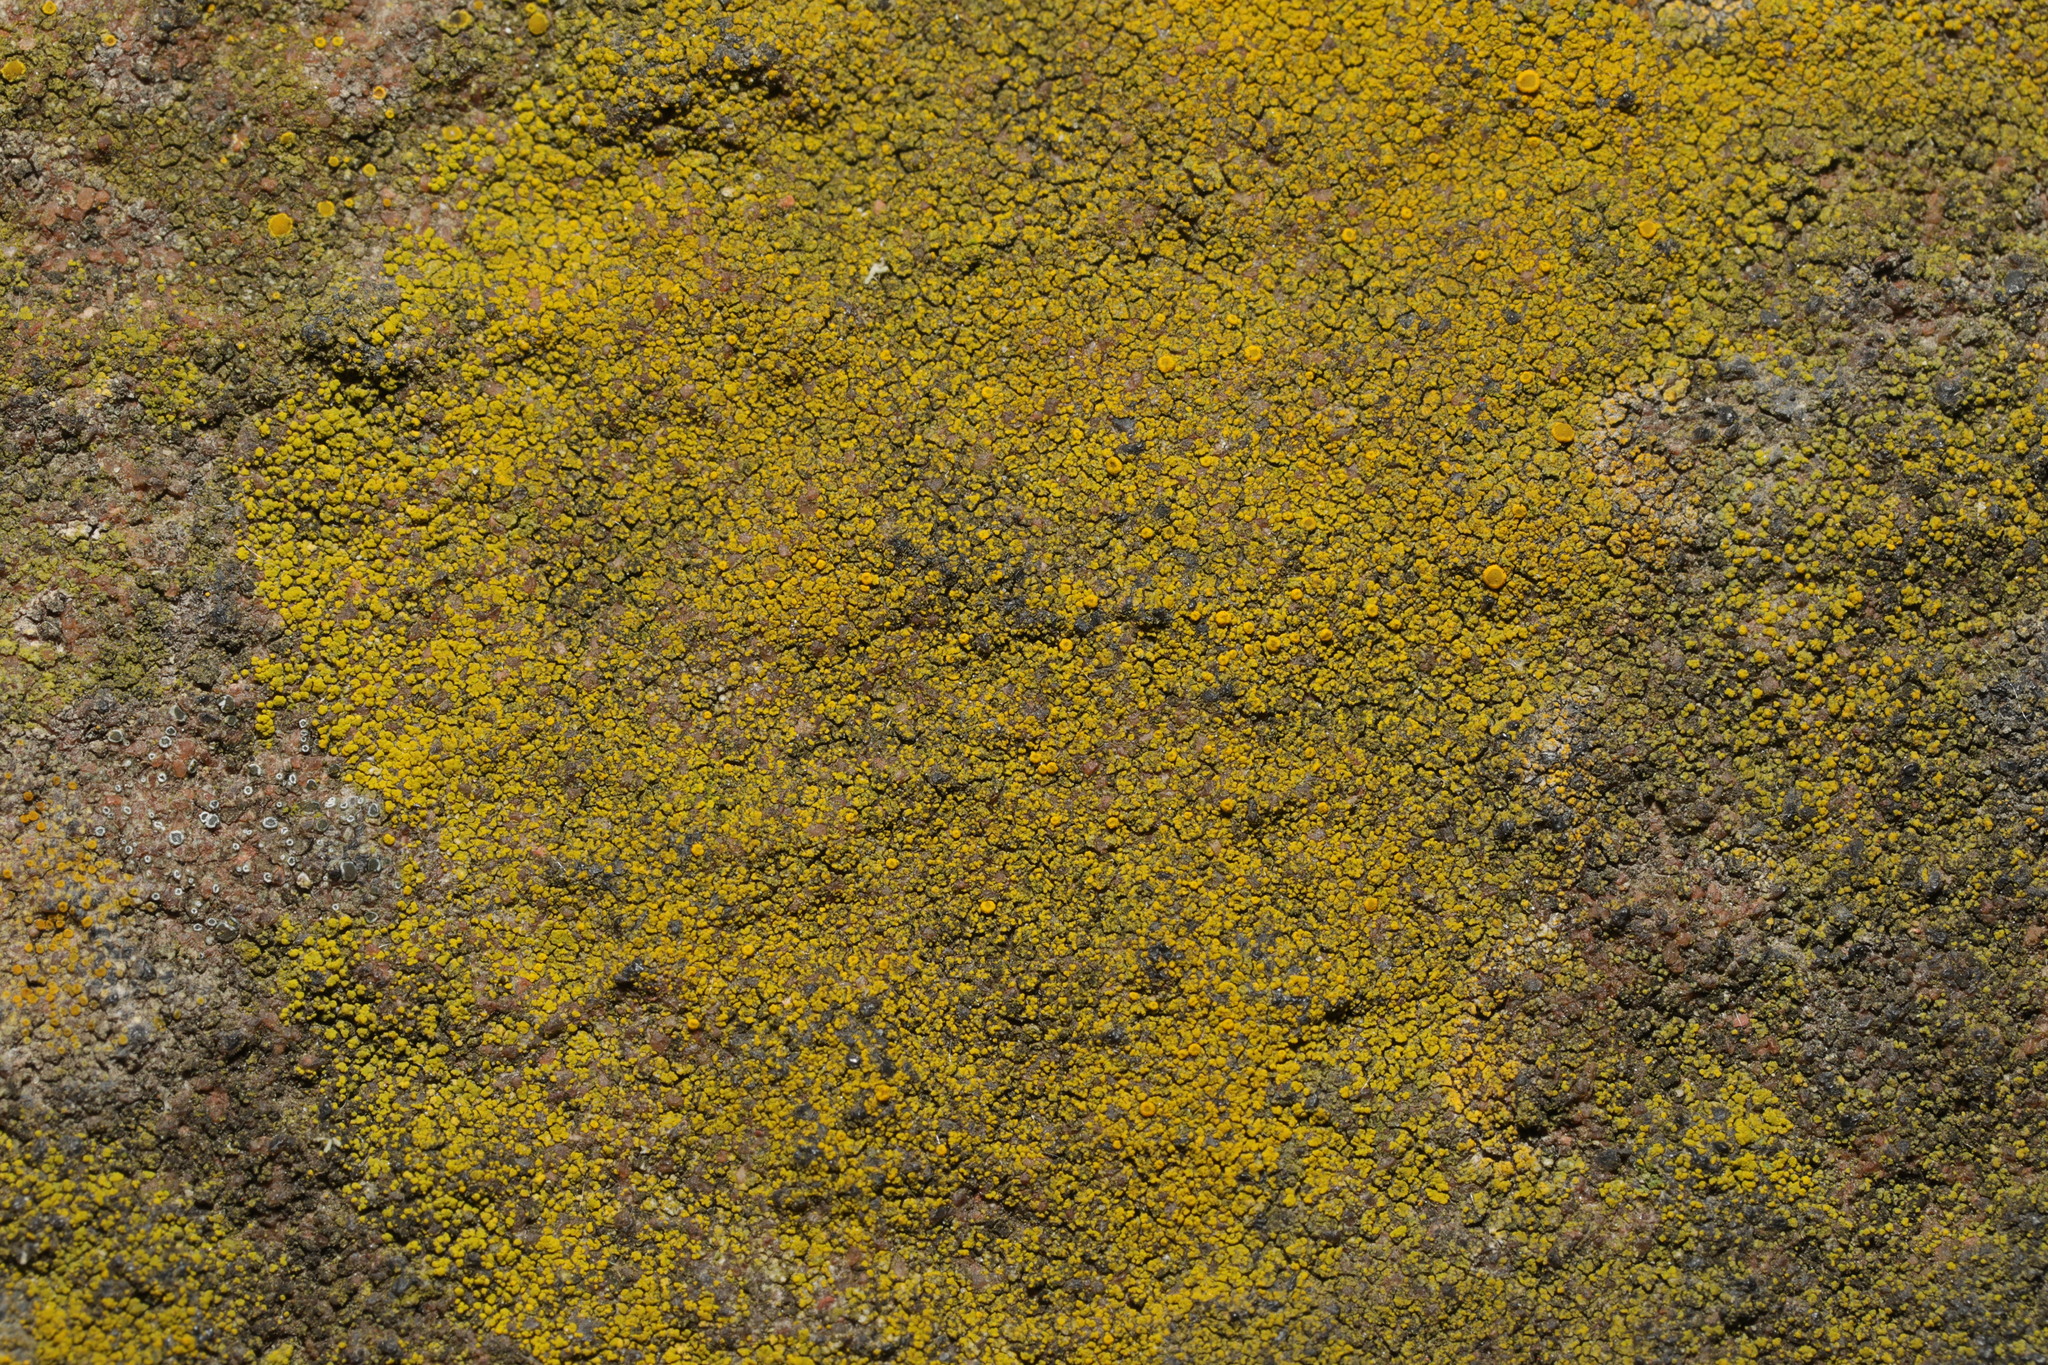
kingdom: Fungi
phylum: Ascomycota
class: Candelariomycetes
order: Candelariales
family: Candelariaceae
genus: Candelariella
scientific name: Candelariella vitellina
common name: Common goldspeck
